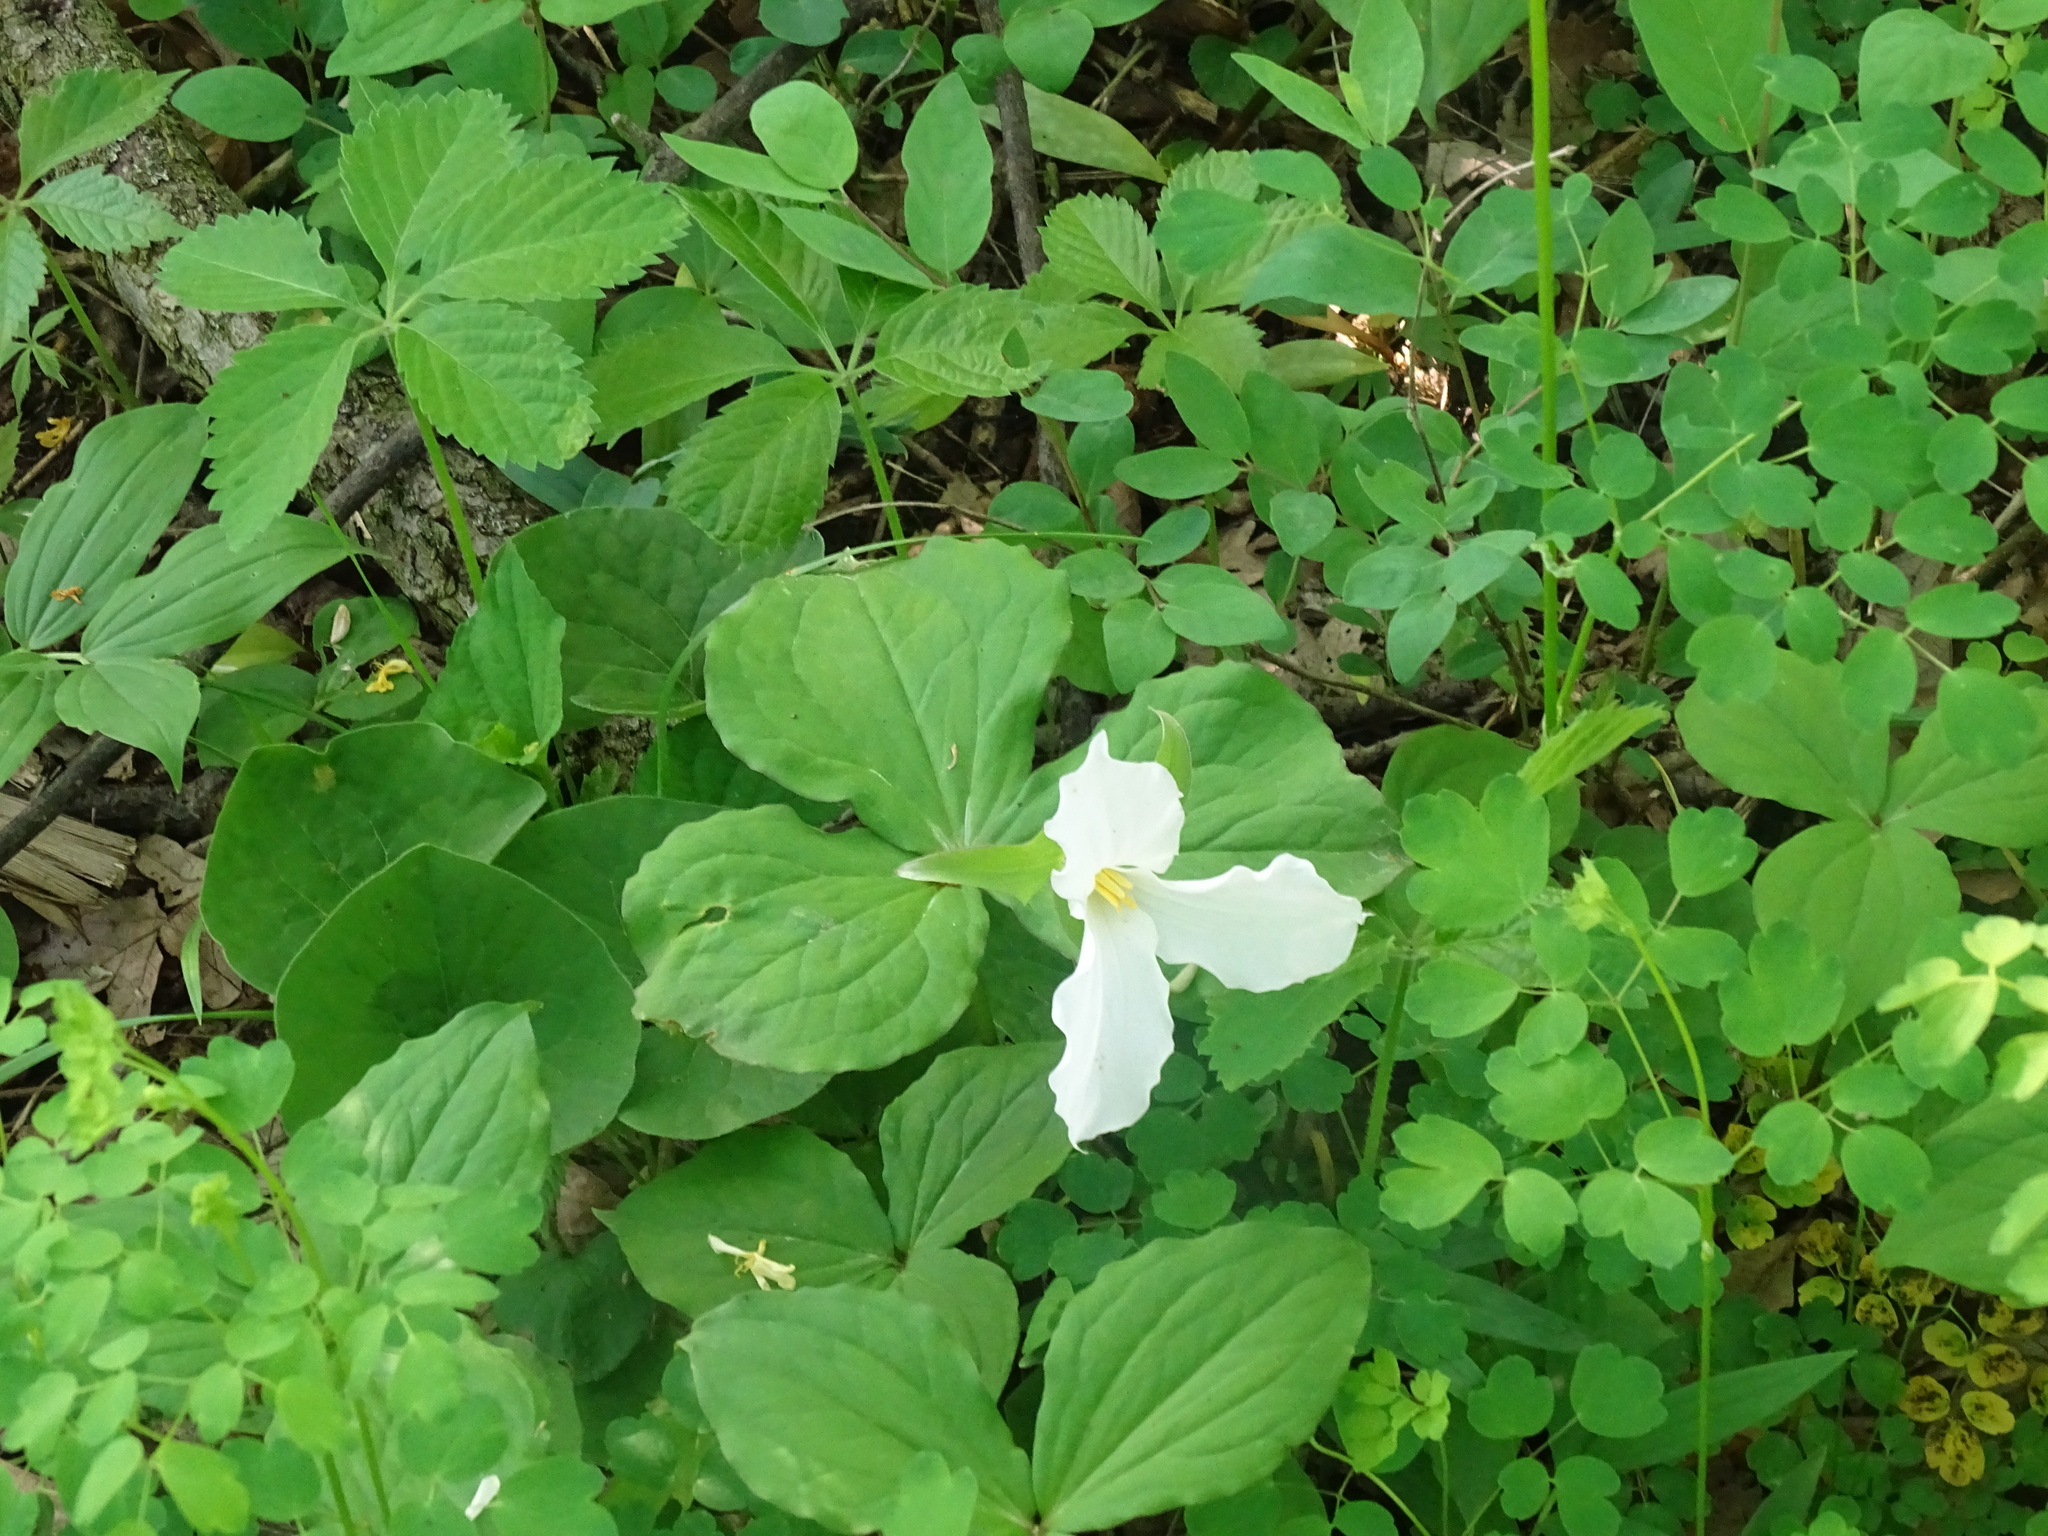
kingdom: Plantae
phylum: Tracheophyta
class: Liliopsida
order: Liliales
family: Melanthiaceae
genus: Trillium
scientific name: Trillium grandiflorum
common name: Great white trillium
